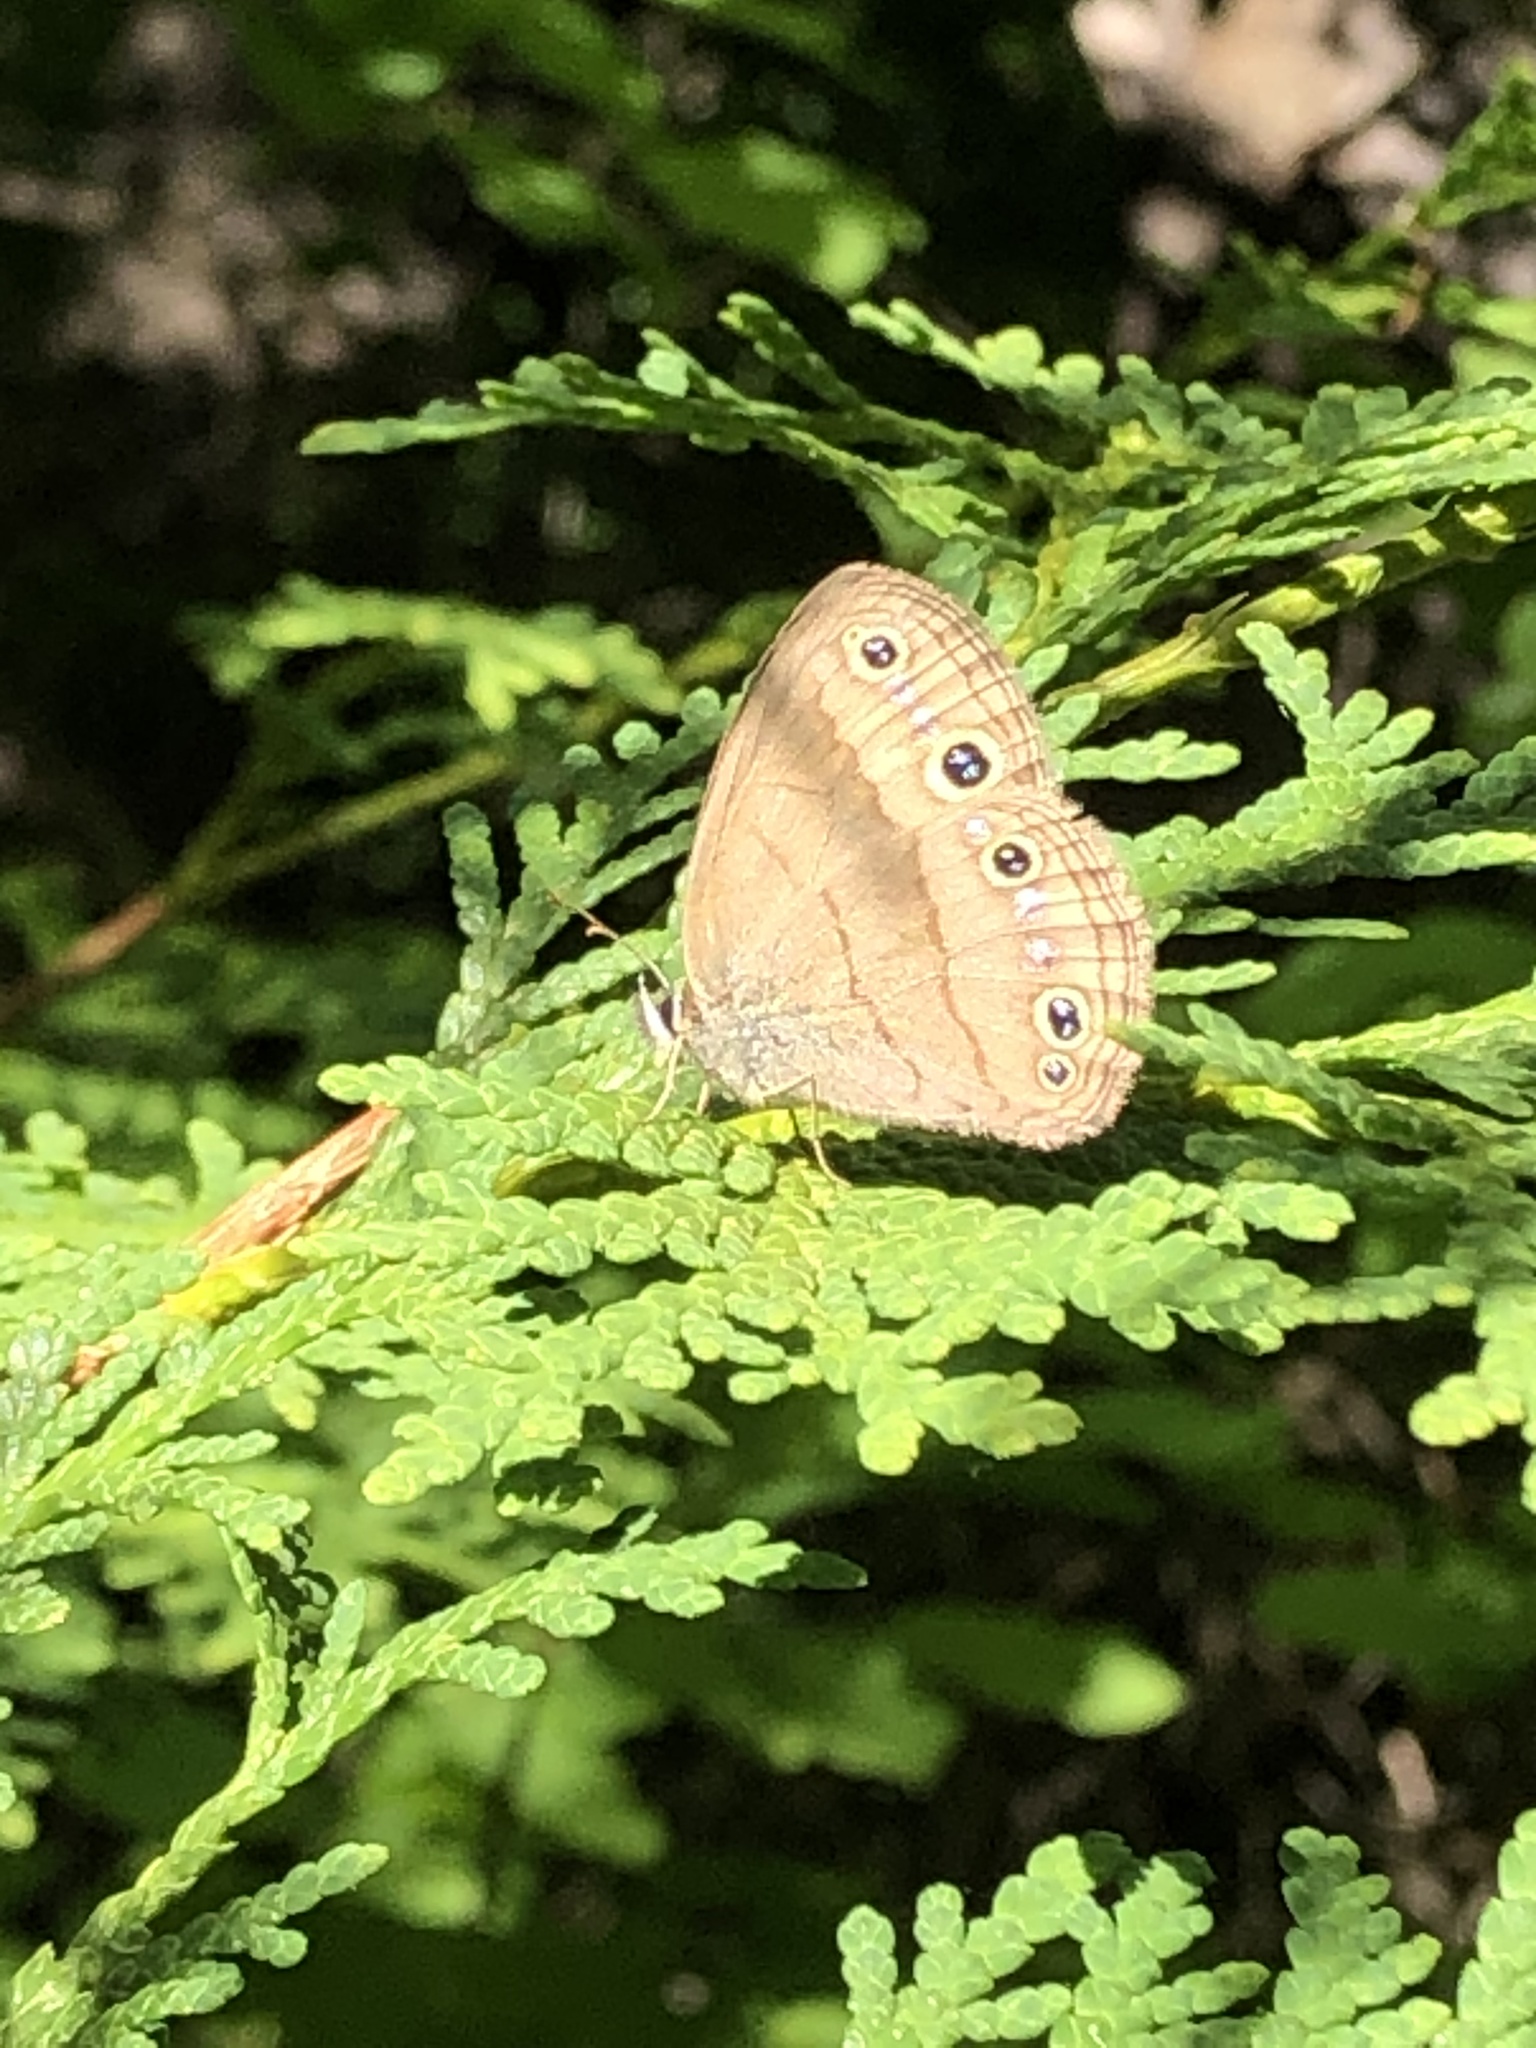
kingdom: Animalia
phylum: Arthropoda
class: Insecta
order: Lepidoptera
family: Nymphalidae
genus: Euptychia
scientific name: Euptychia cymela
